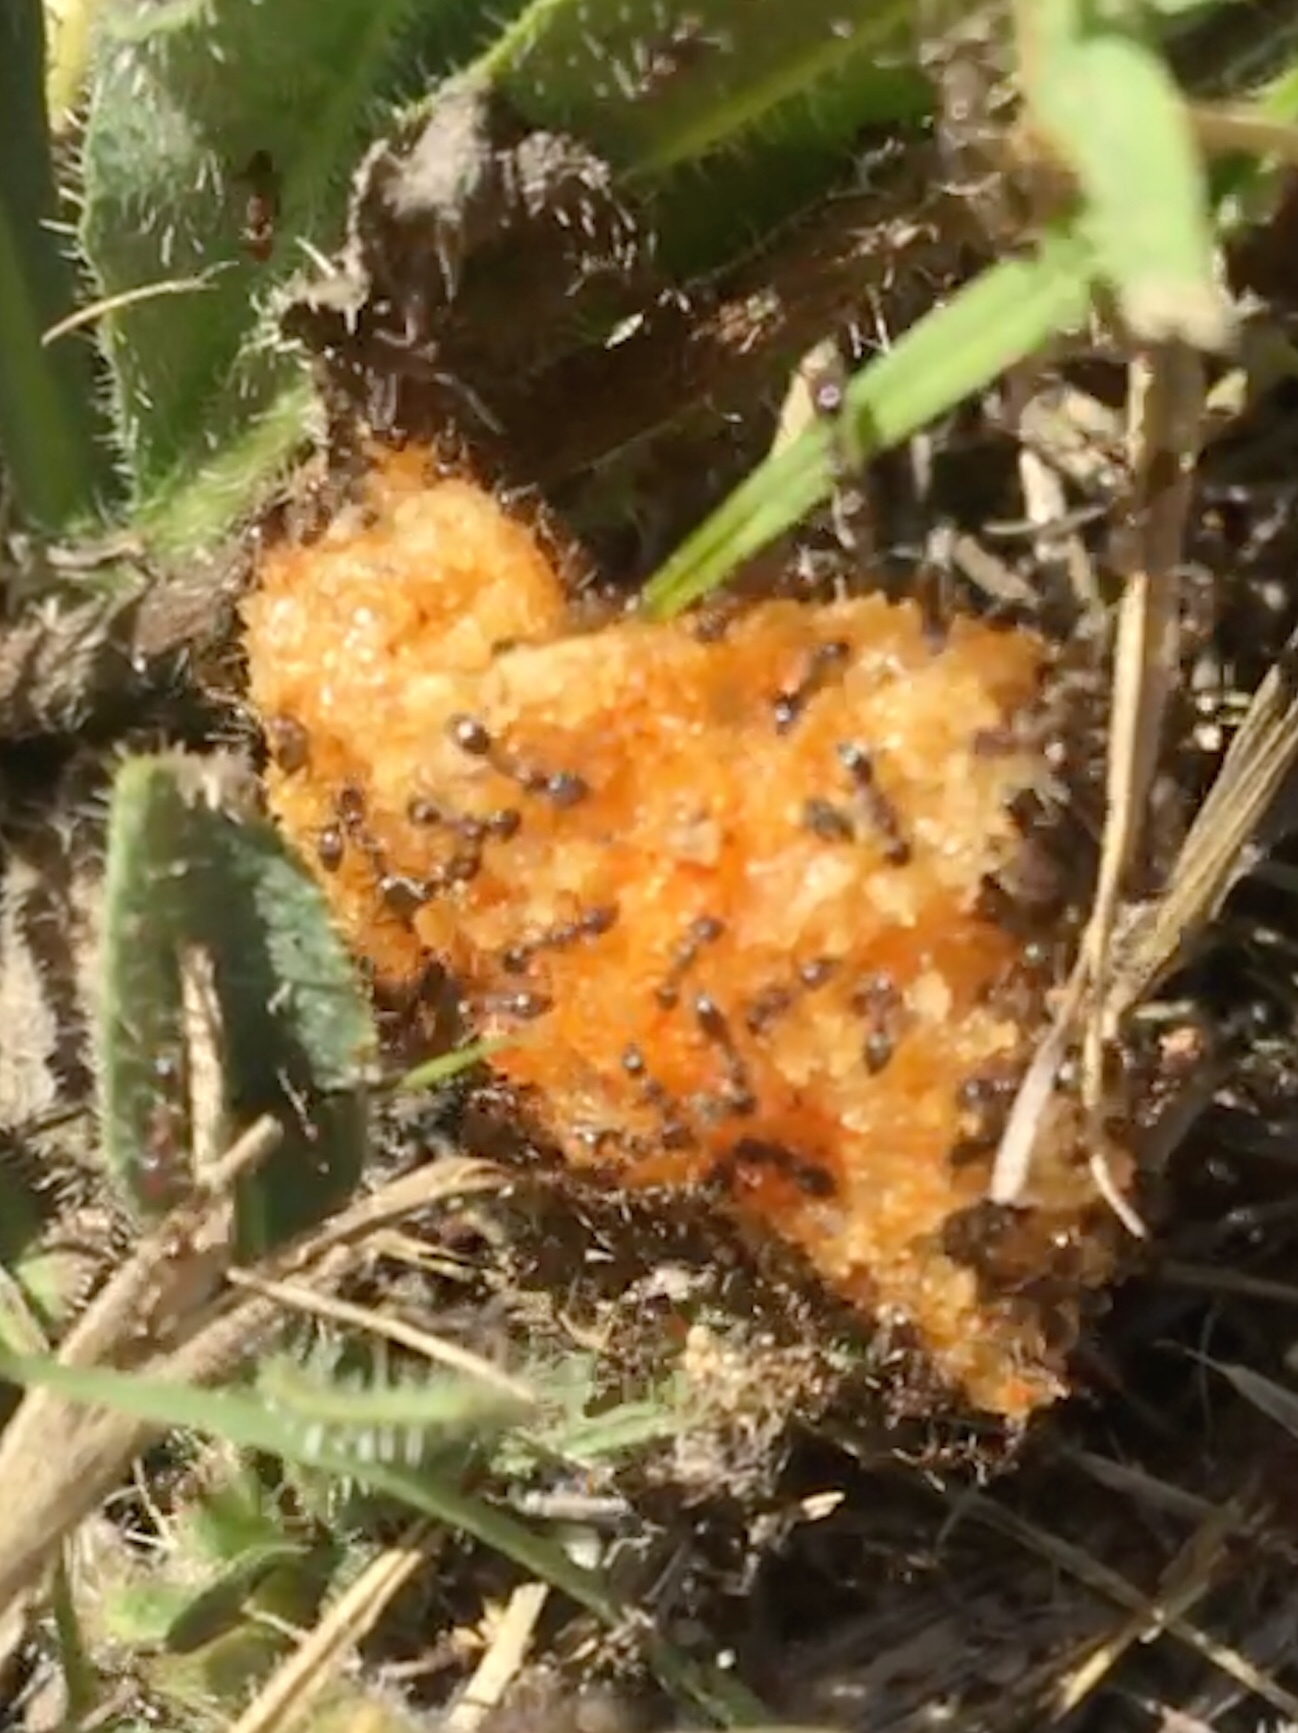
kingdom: Animalia
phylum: Arthropoda
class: Insecta
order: Hymenoptera
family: Formicidae
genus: Linepithema
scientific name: Linepithema humile
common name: Argentine ant
